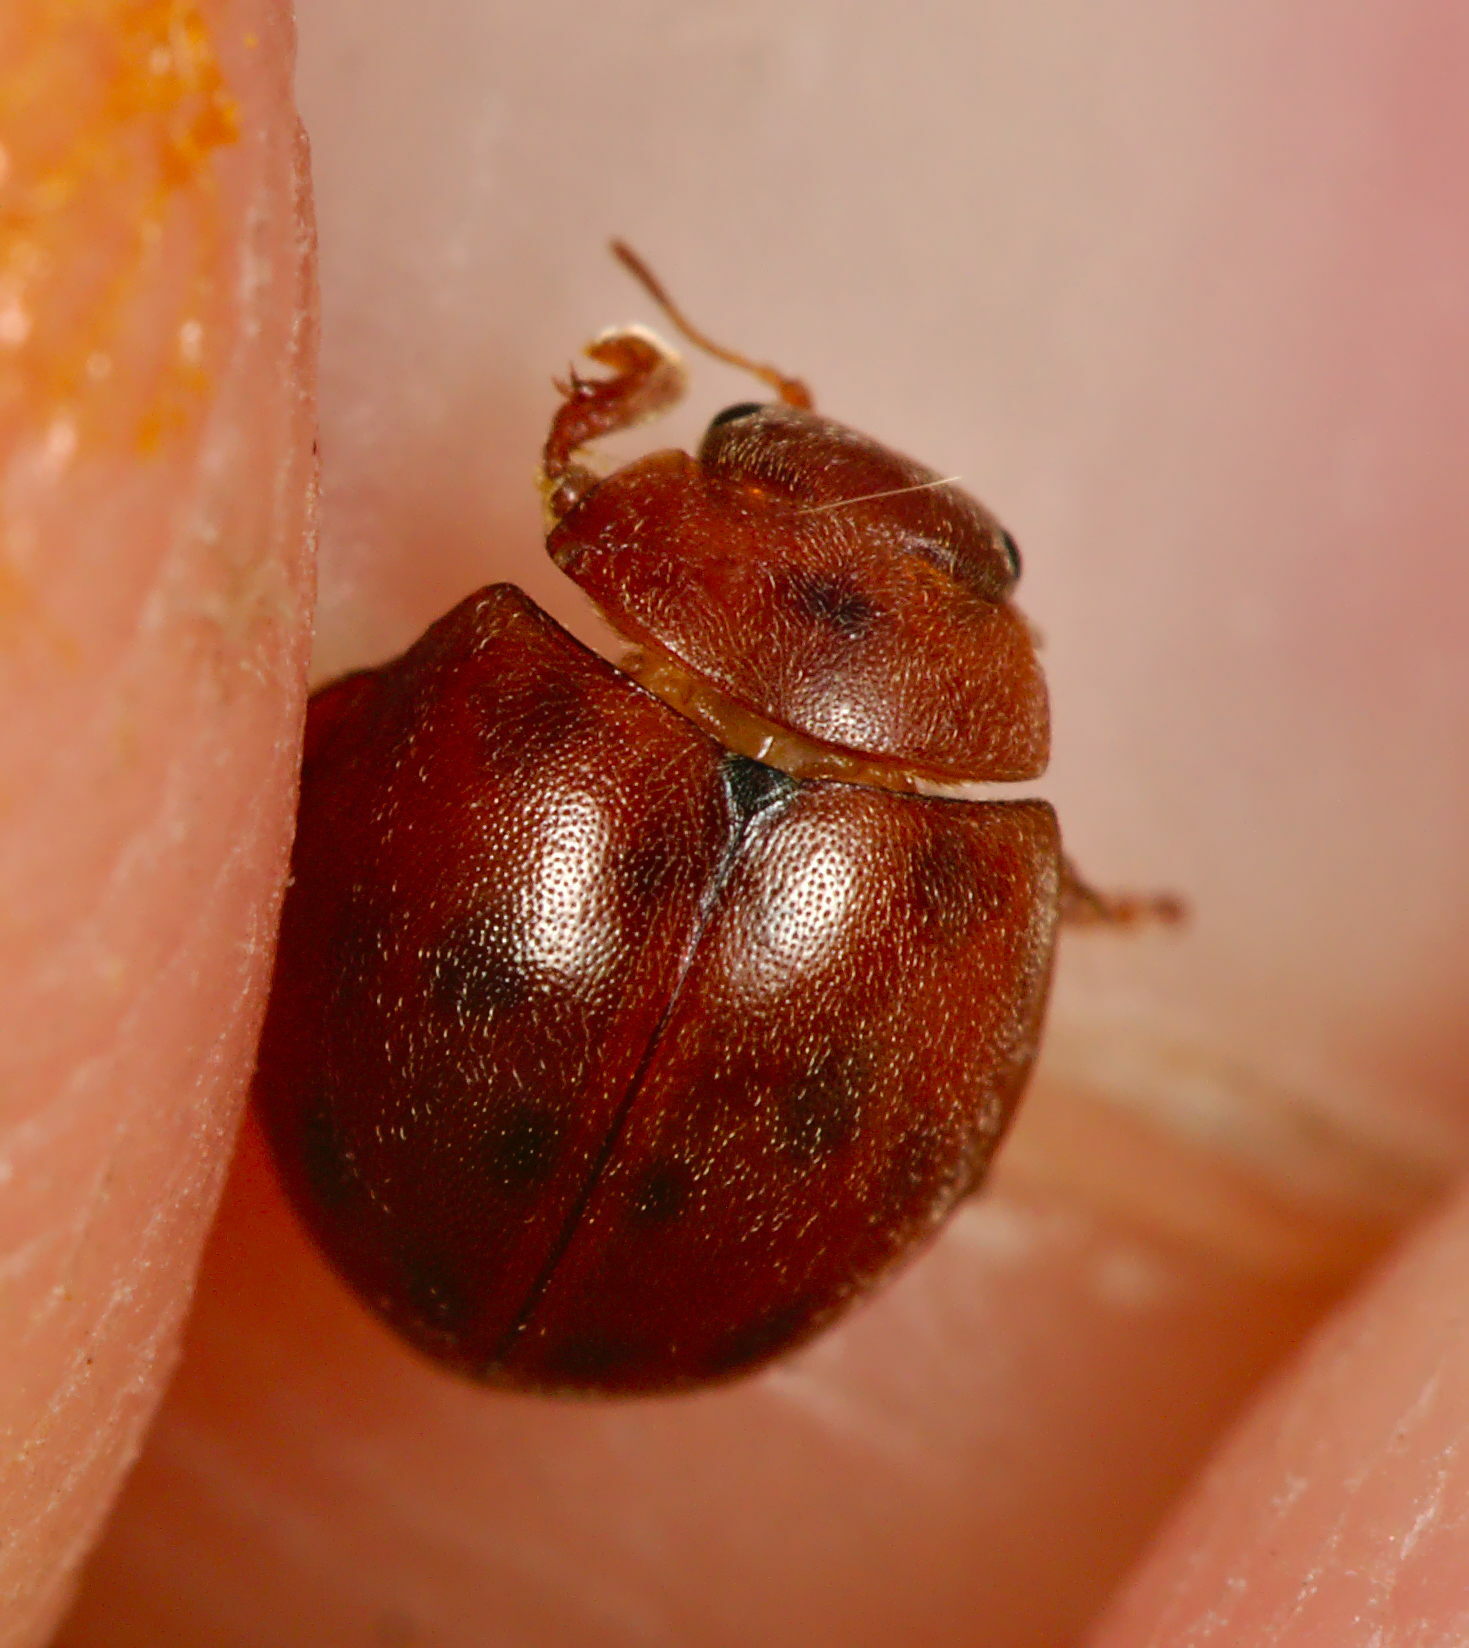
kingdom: Animalia
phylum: Arthropoda
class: Insecta
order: Coleoptera
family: Coccinellidae
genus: Subcoccinella
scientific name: Subcoccinella vigintiquatuorpunctata
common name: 24-spot ladybird
